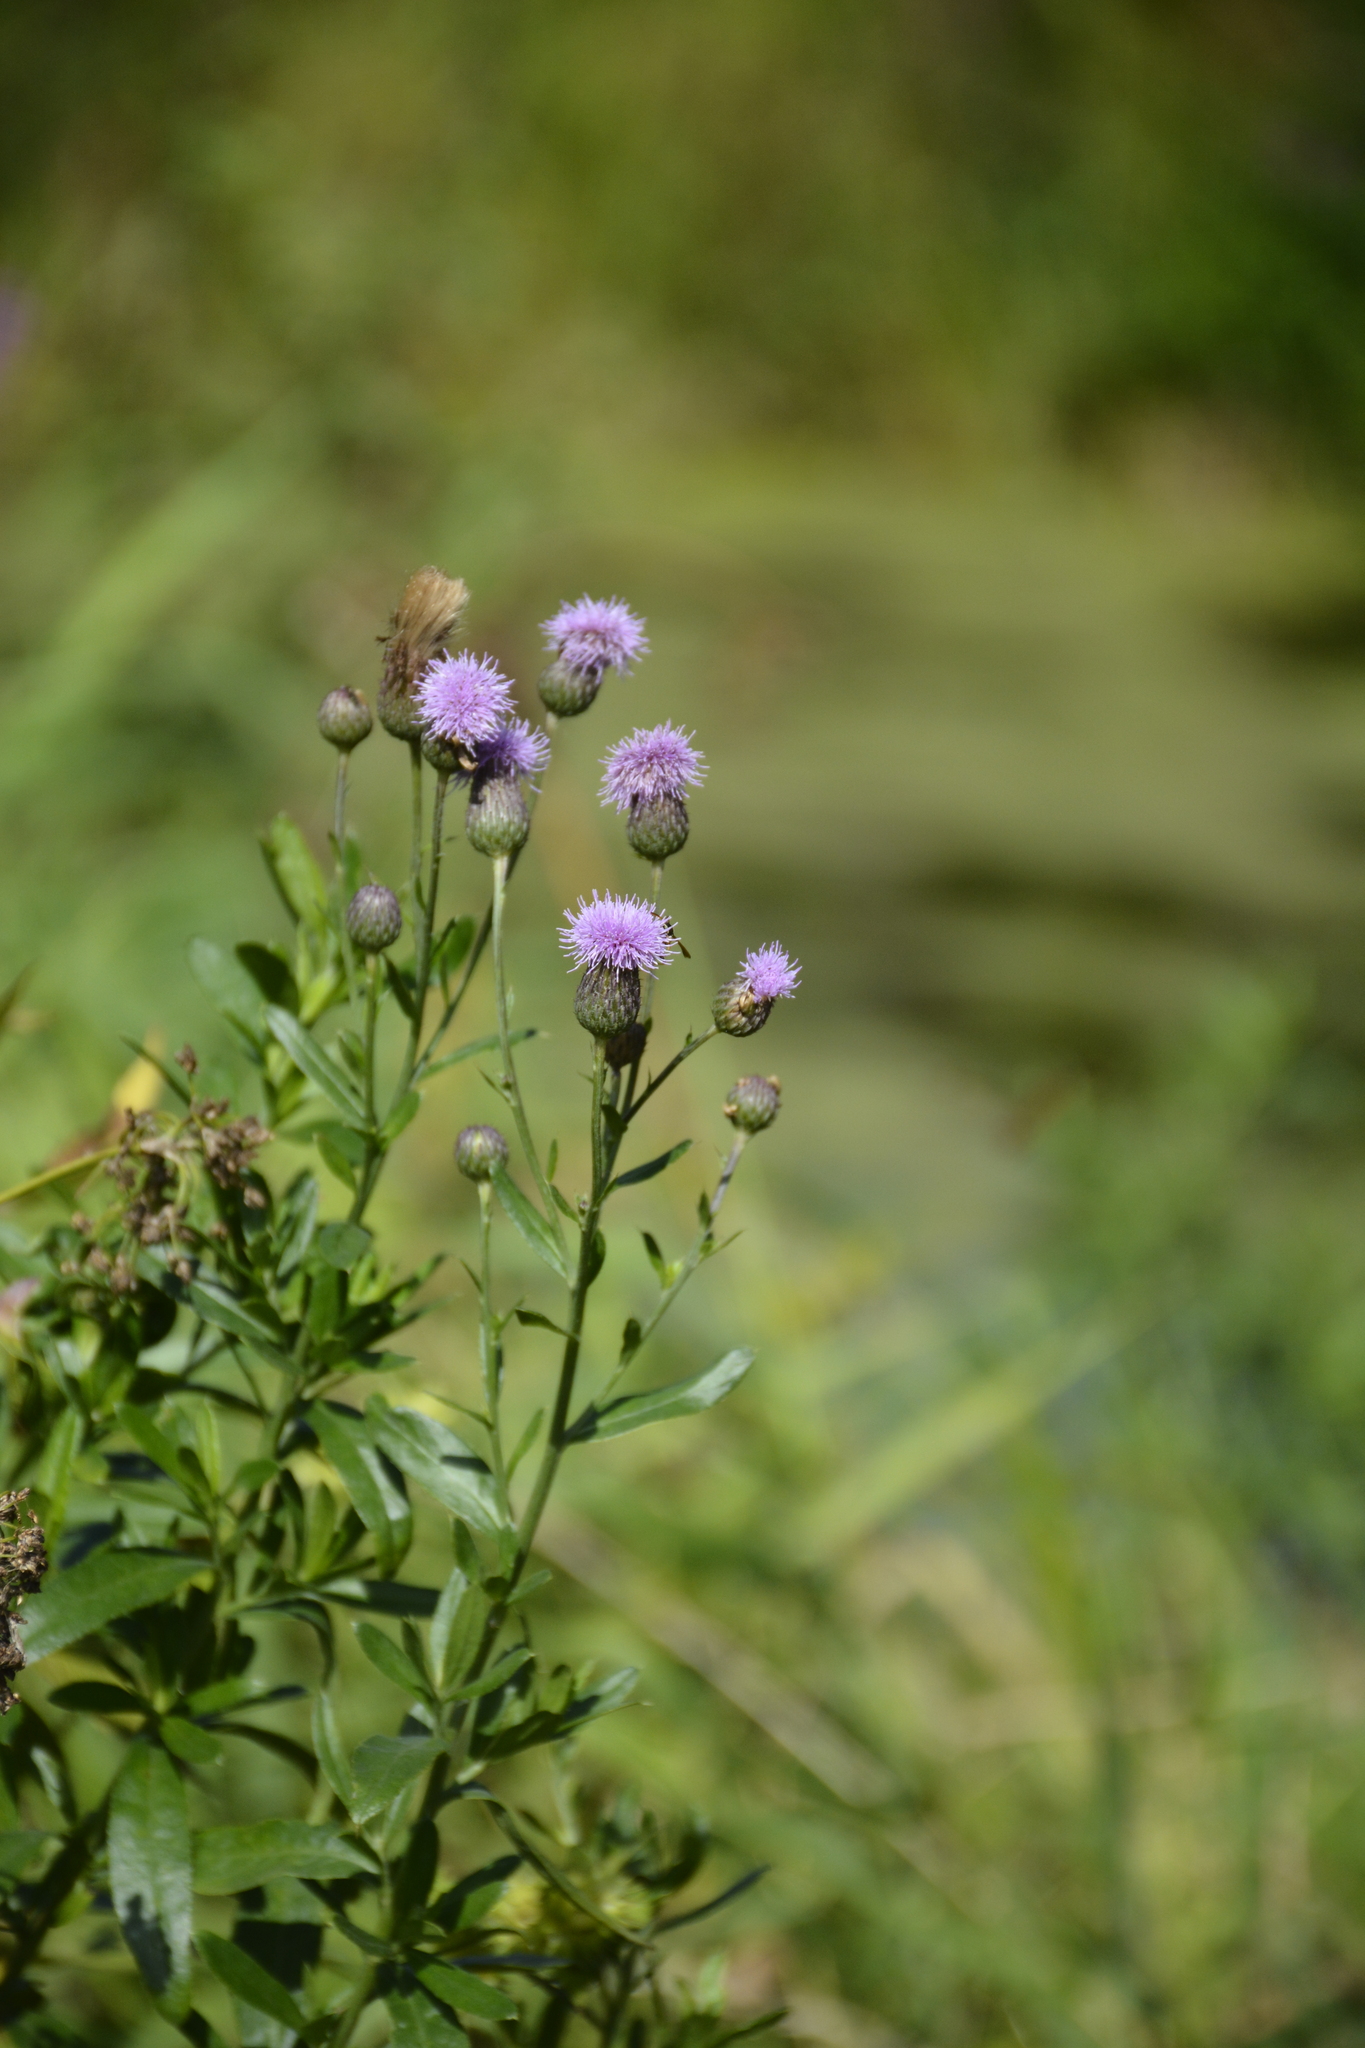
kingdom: Plantae
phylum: Tracheophyta
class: Magnoliopsida
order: Asterales
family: Asteraceae
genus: Cirsium
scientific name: Cirsium arvense
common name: Creeping thistle
